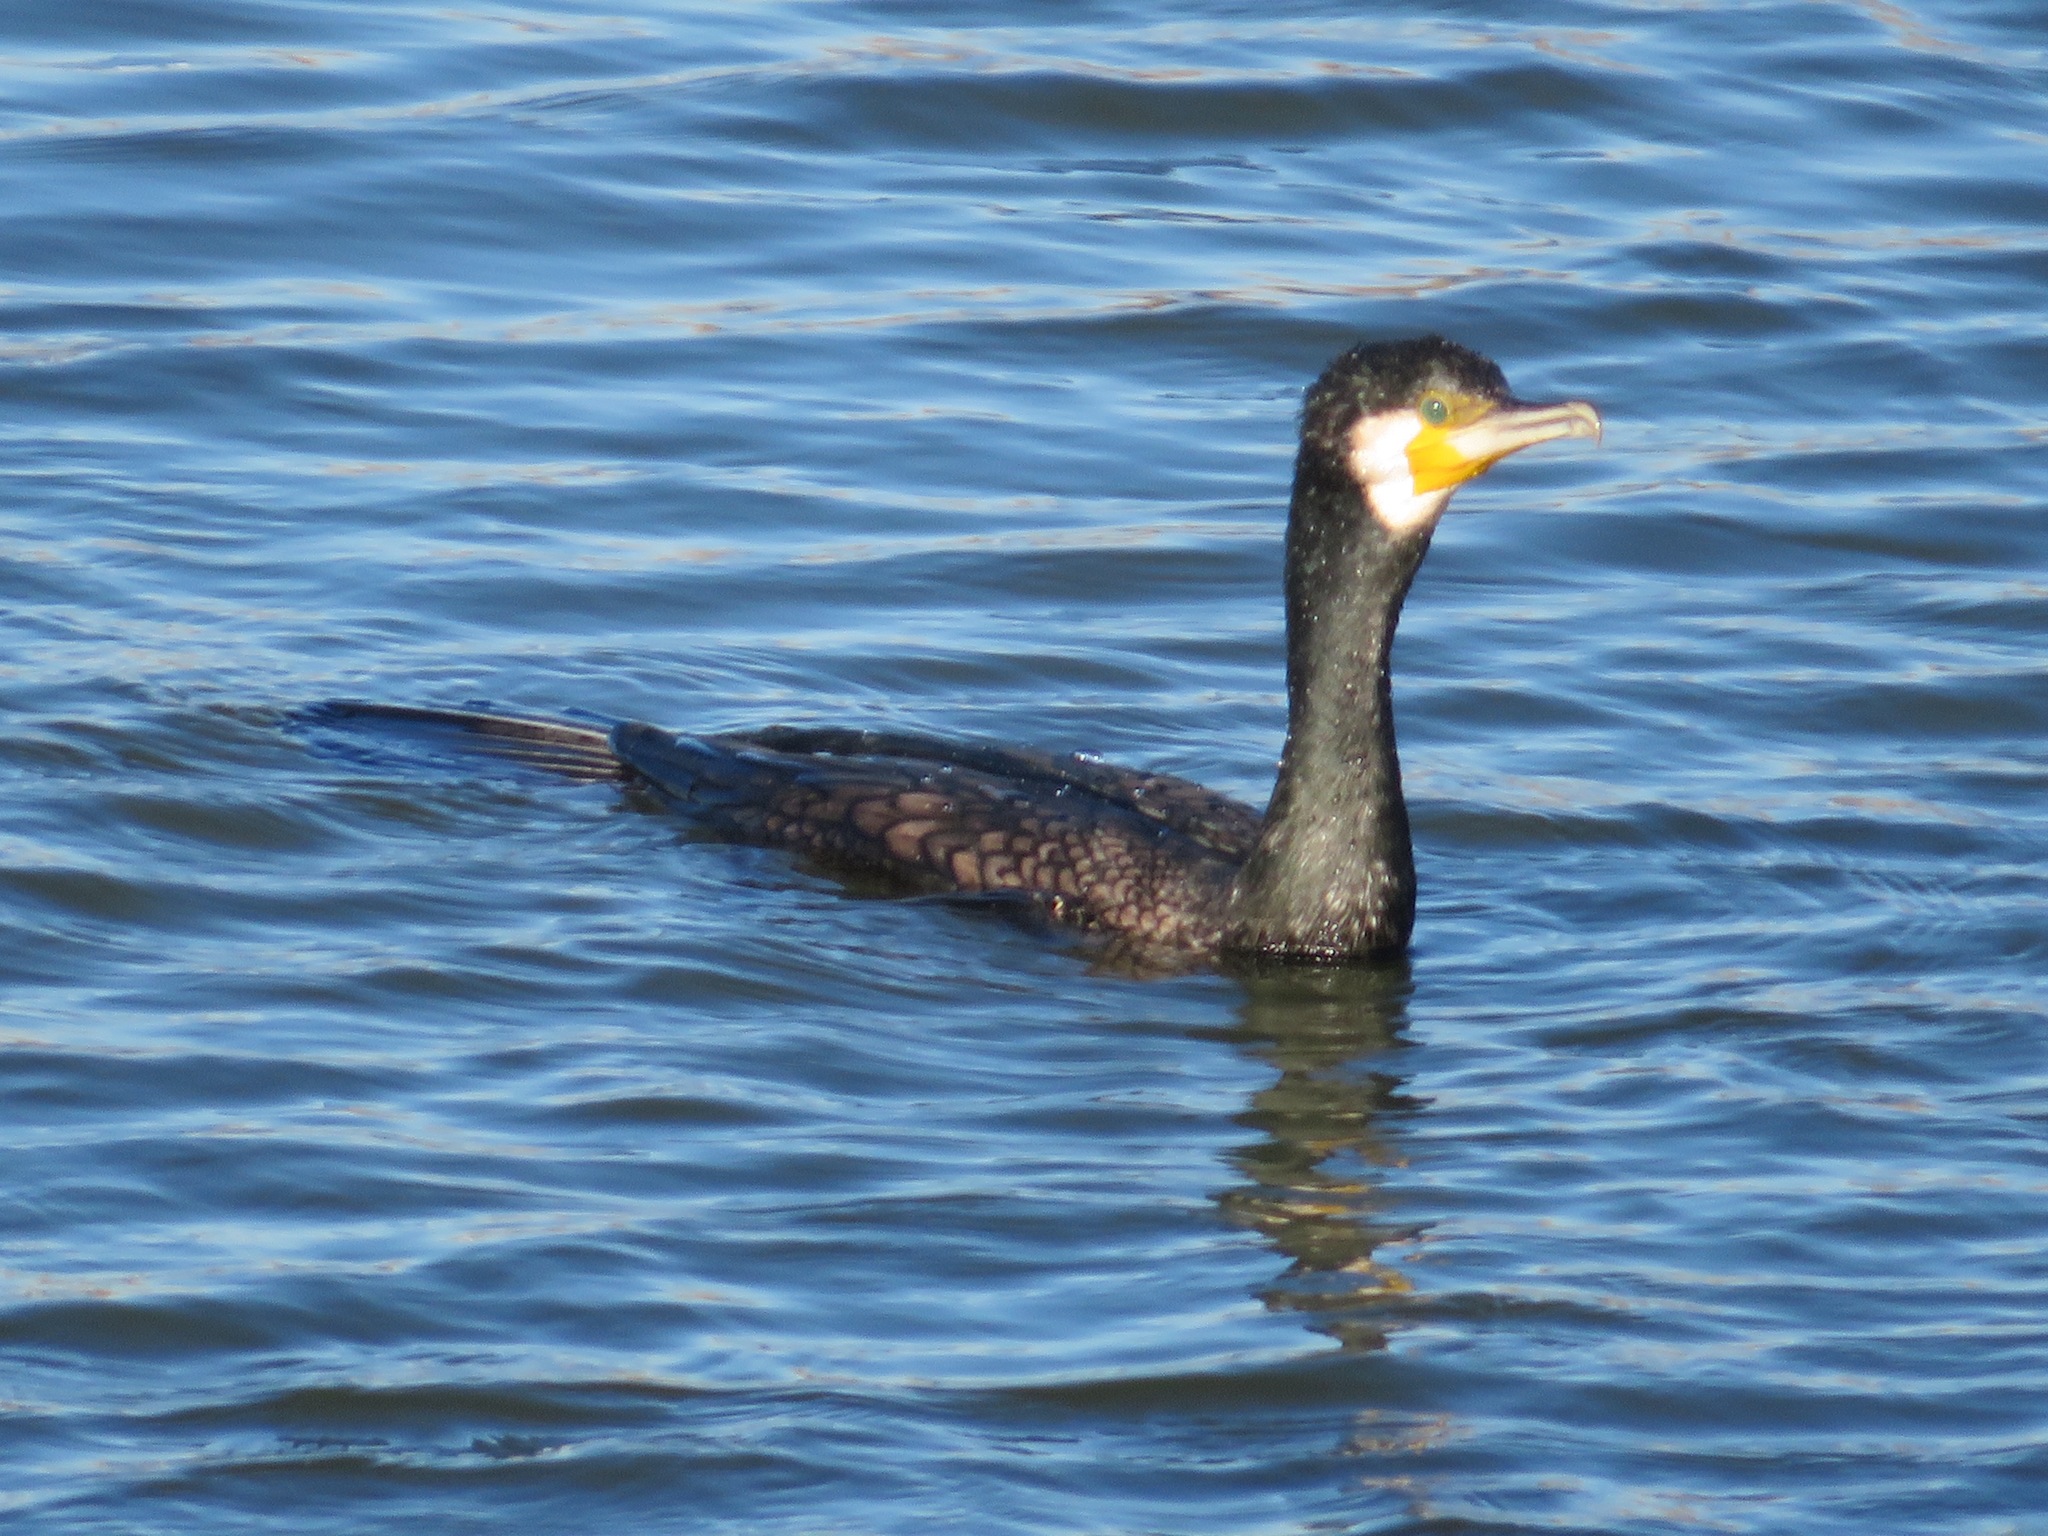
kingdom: Animalia
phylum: Chordata
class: Aves
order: Suliformes
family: Phalacrocoracidae
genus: Phalacrocorax
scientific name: Phalacrocorax carbo
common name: Great cormorant
